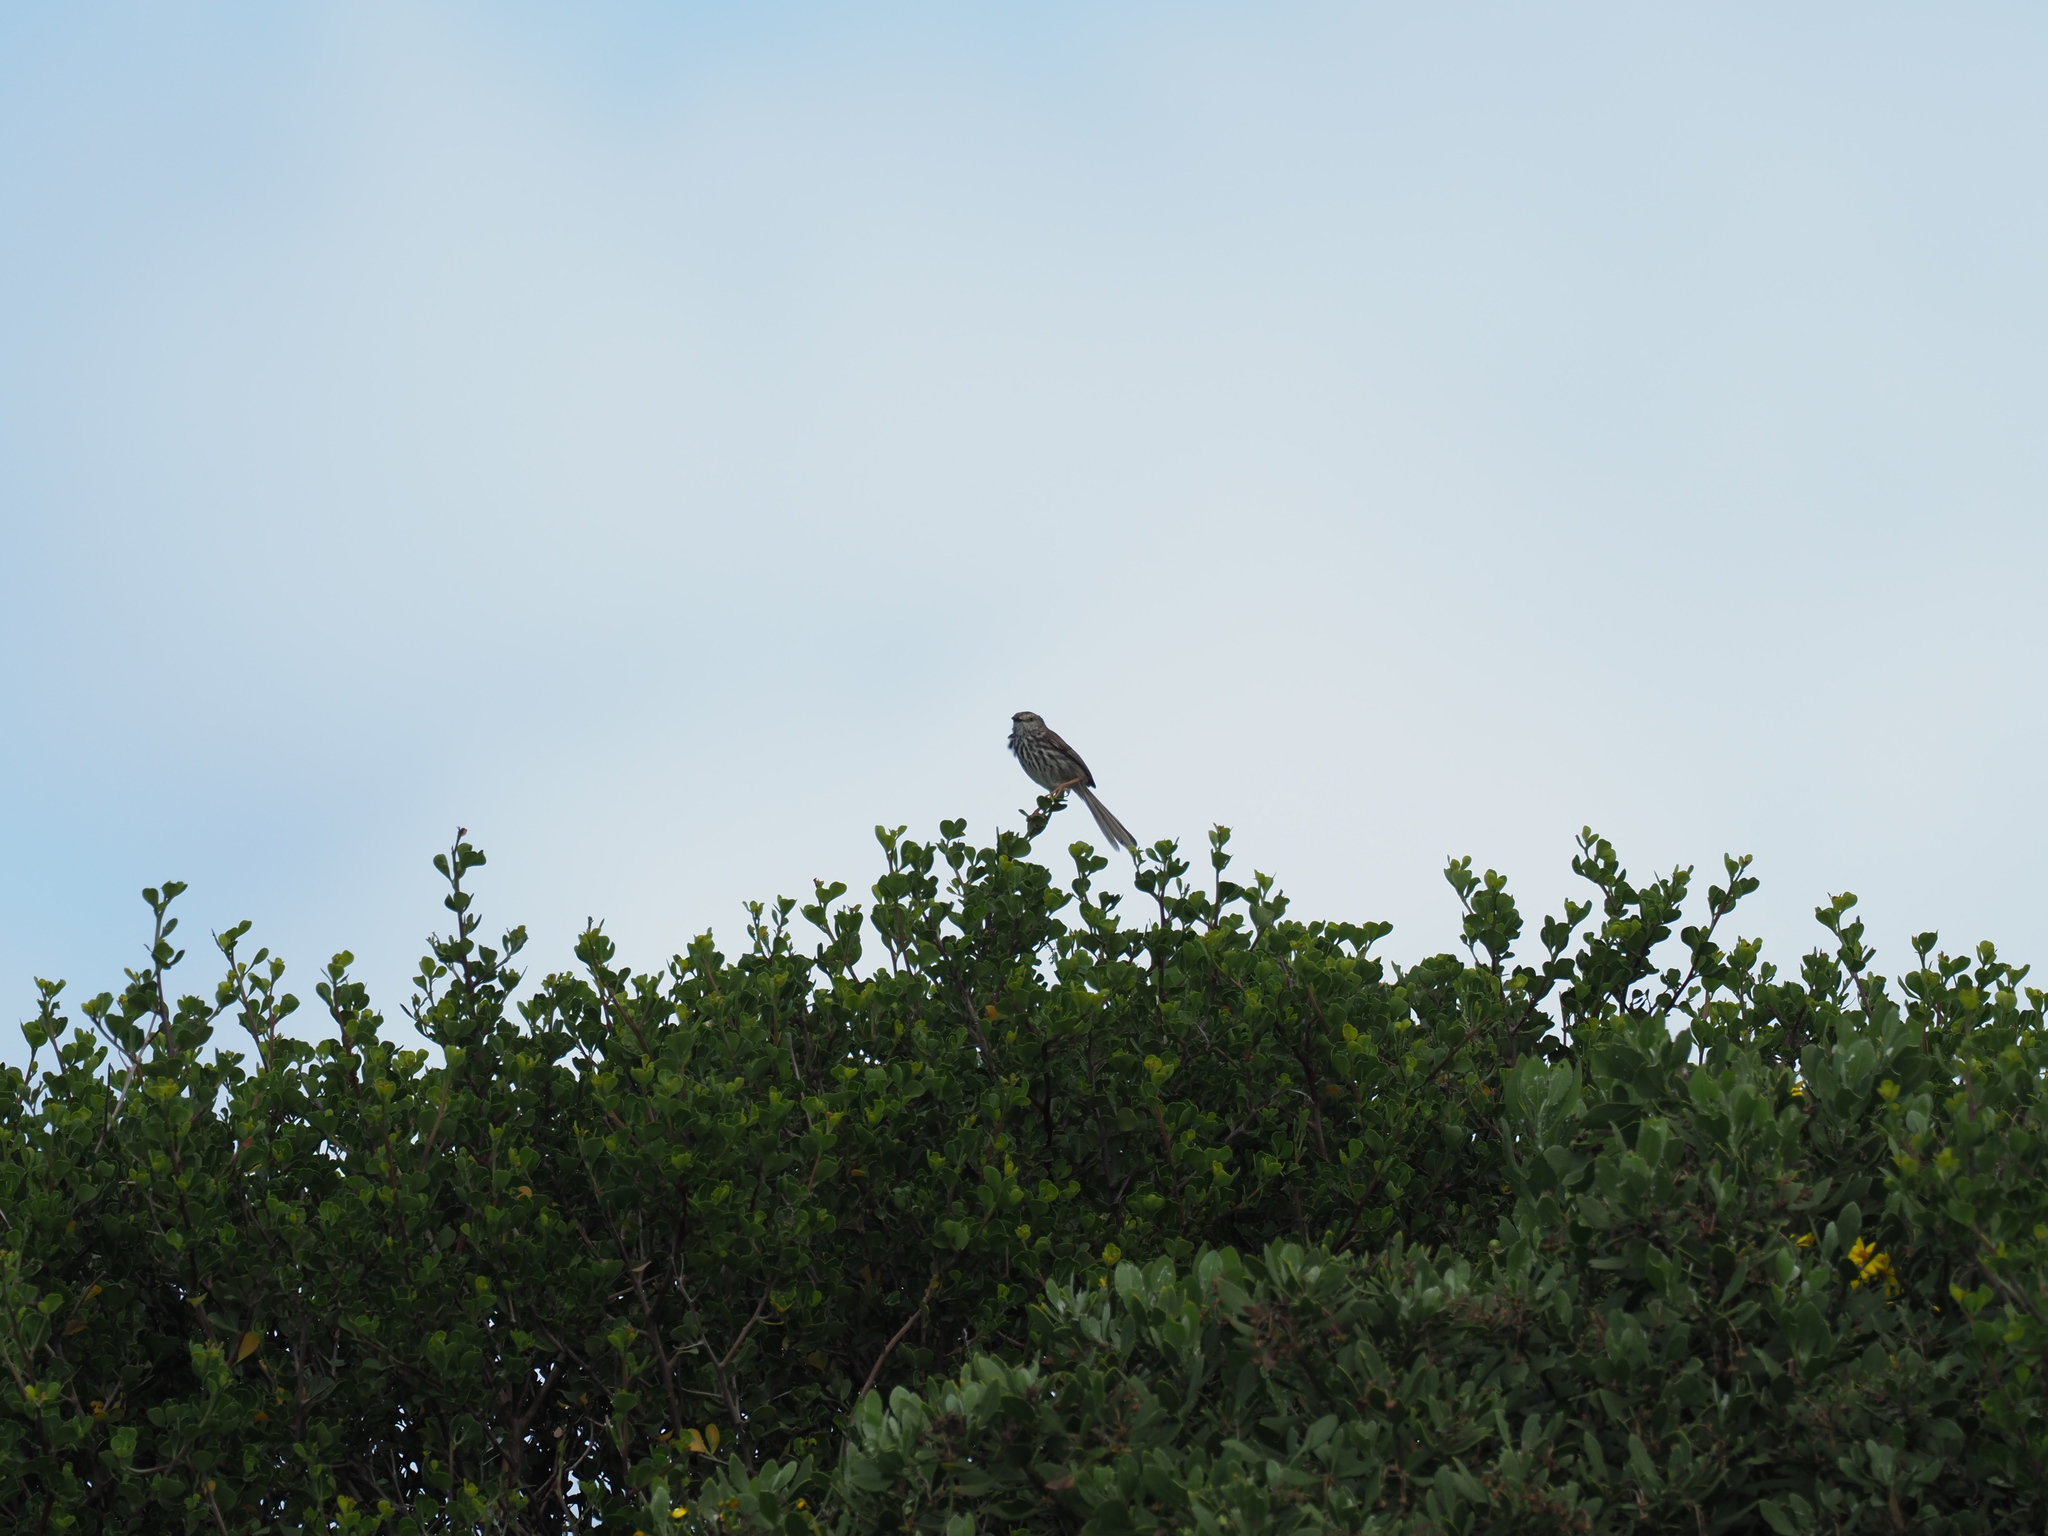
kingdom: Animalia
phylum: Chordata
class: Aves
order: Passeriformes
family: Cisticolidae
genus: Prinia
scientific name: Prinia maculosa
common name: Karoo prinia
